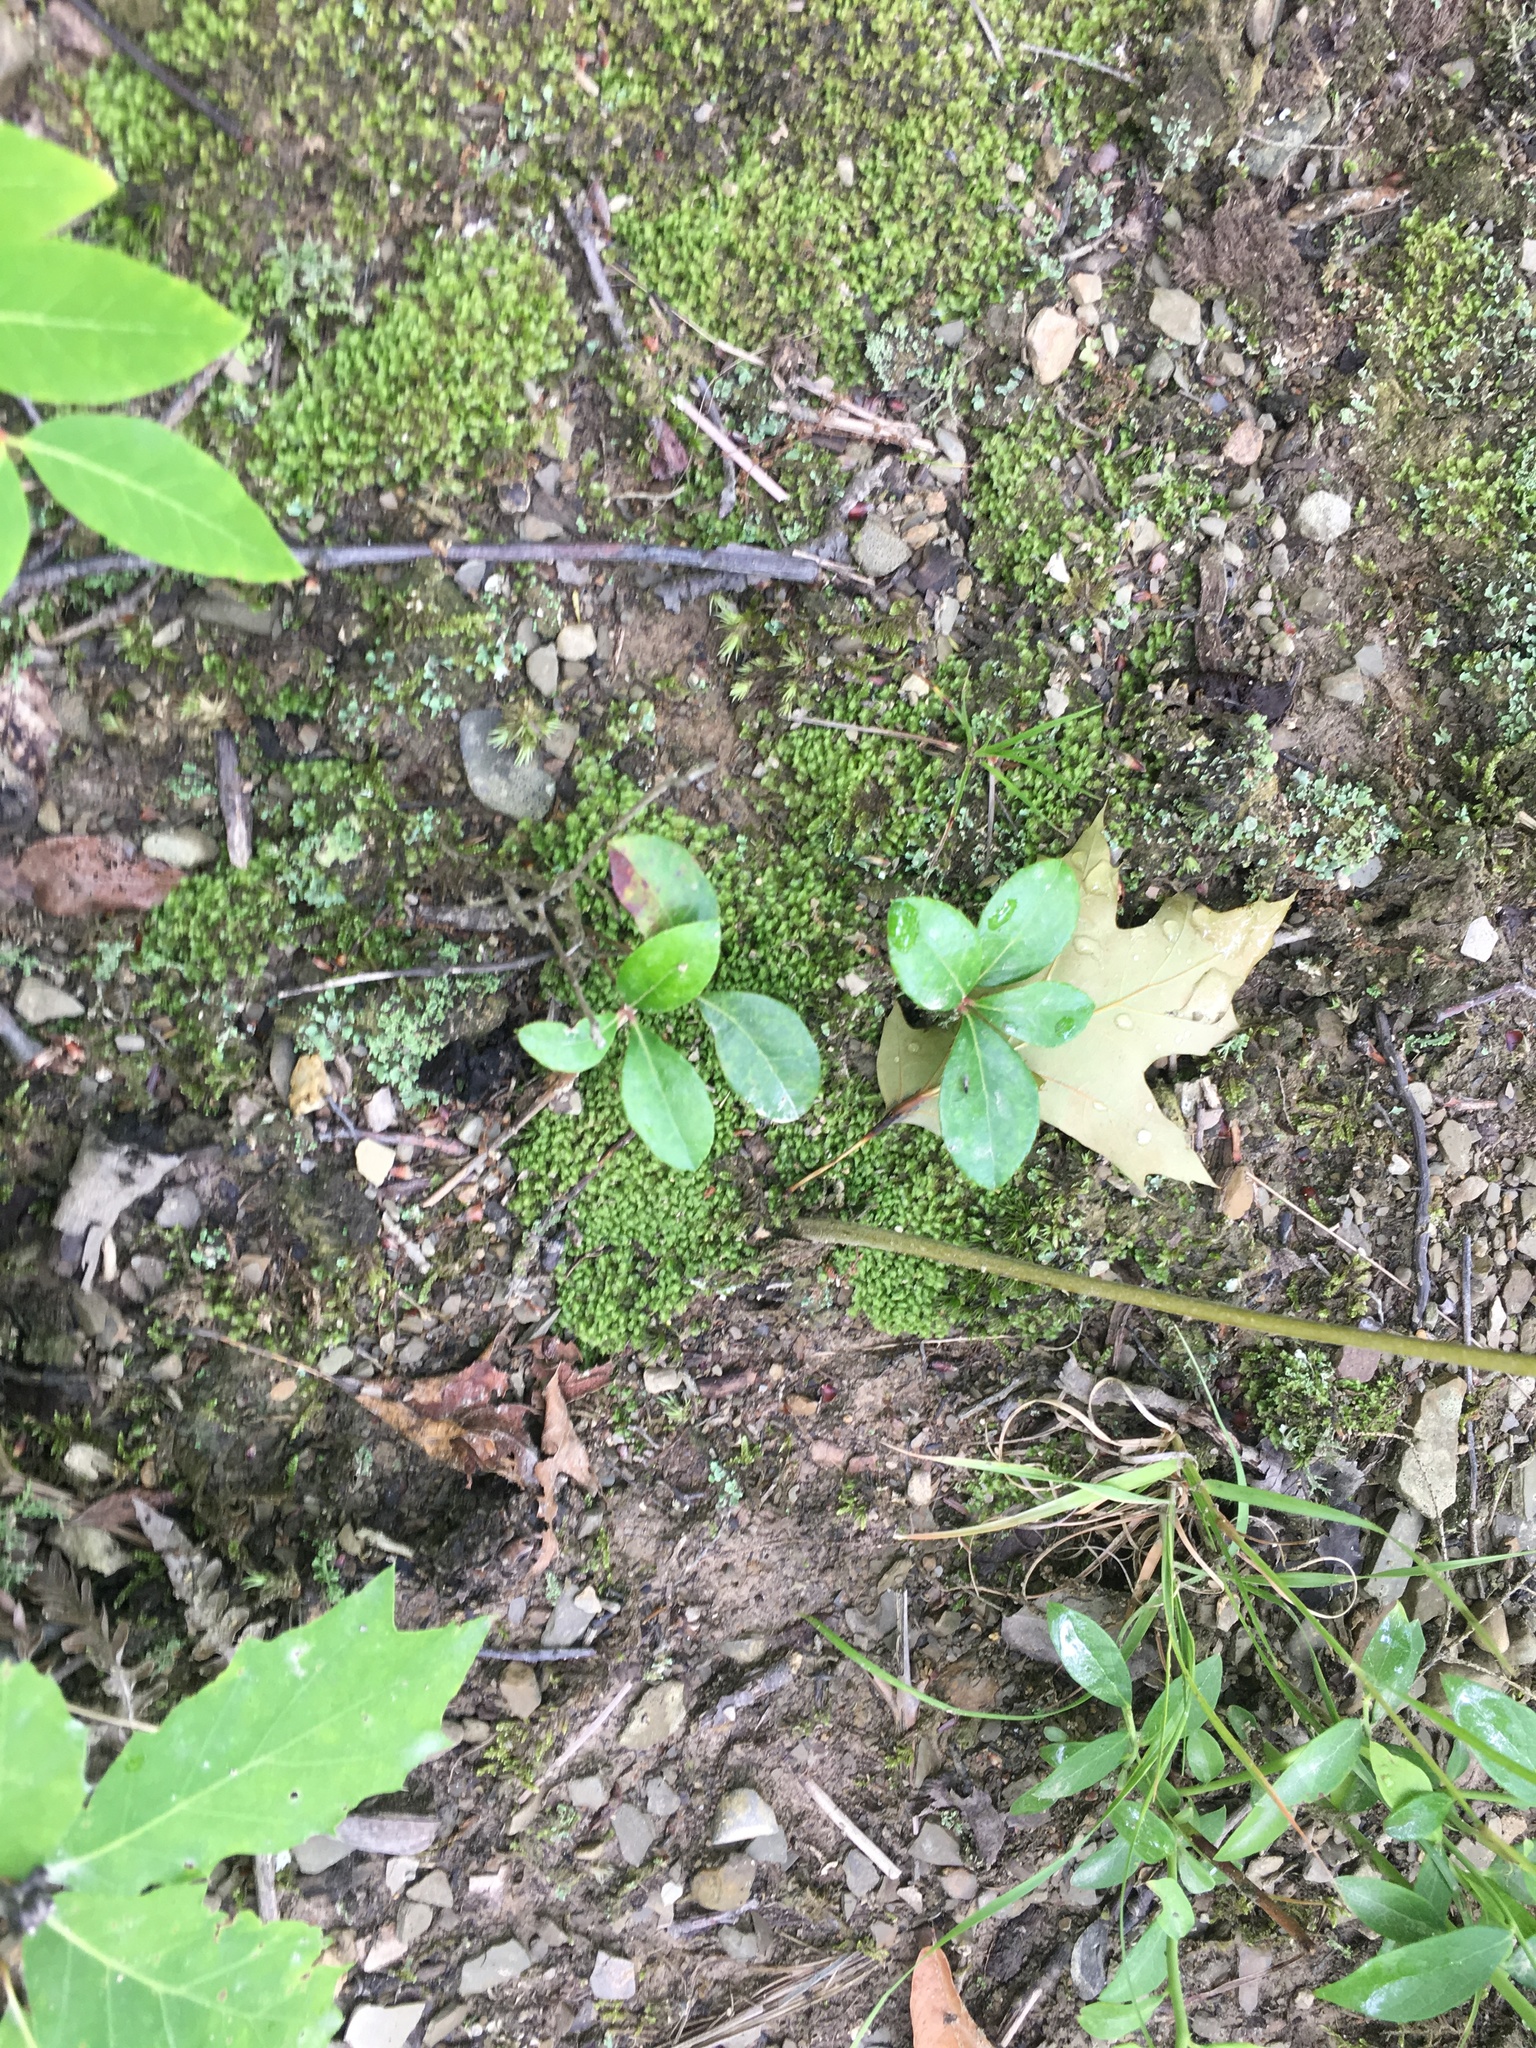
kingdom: Plantae
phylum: Tracheophyta
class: Magnoliopsida
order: Ericales
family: Ericaceae
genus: Gaultheria
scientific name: Gaultheria procumbens
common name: Checkerberry
